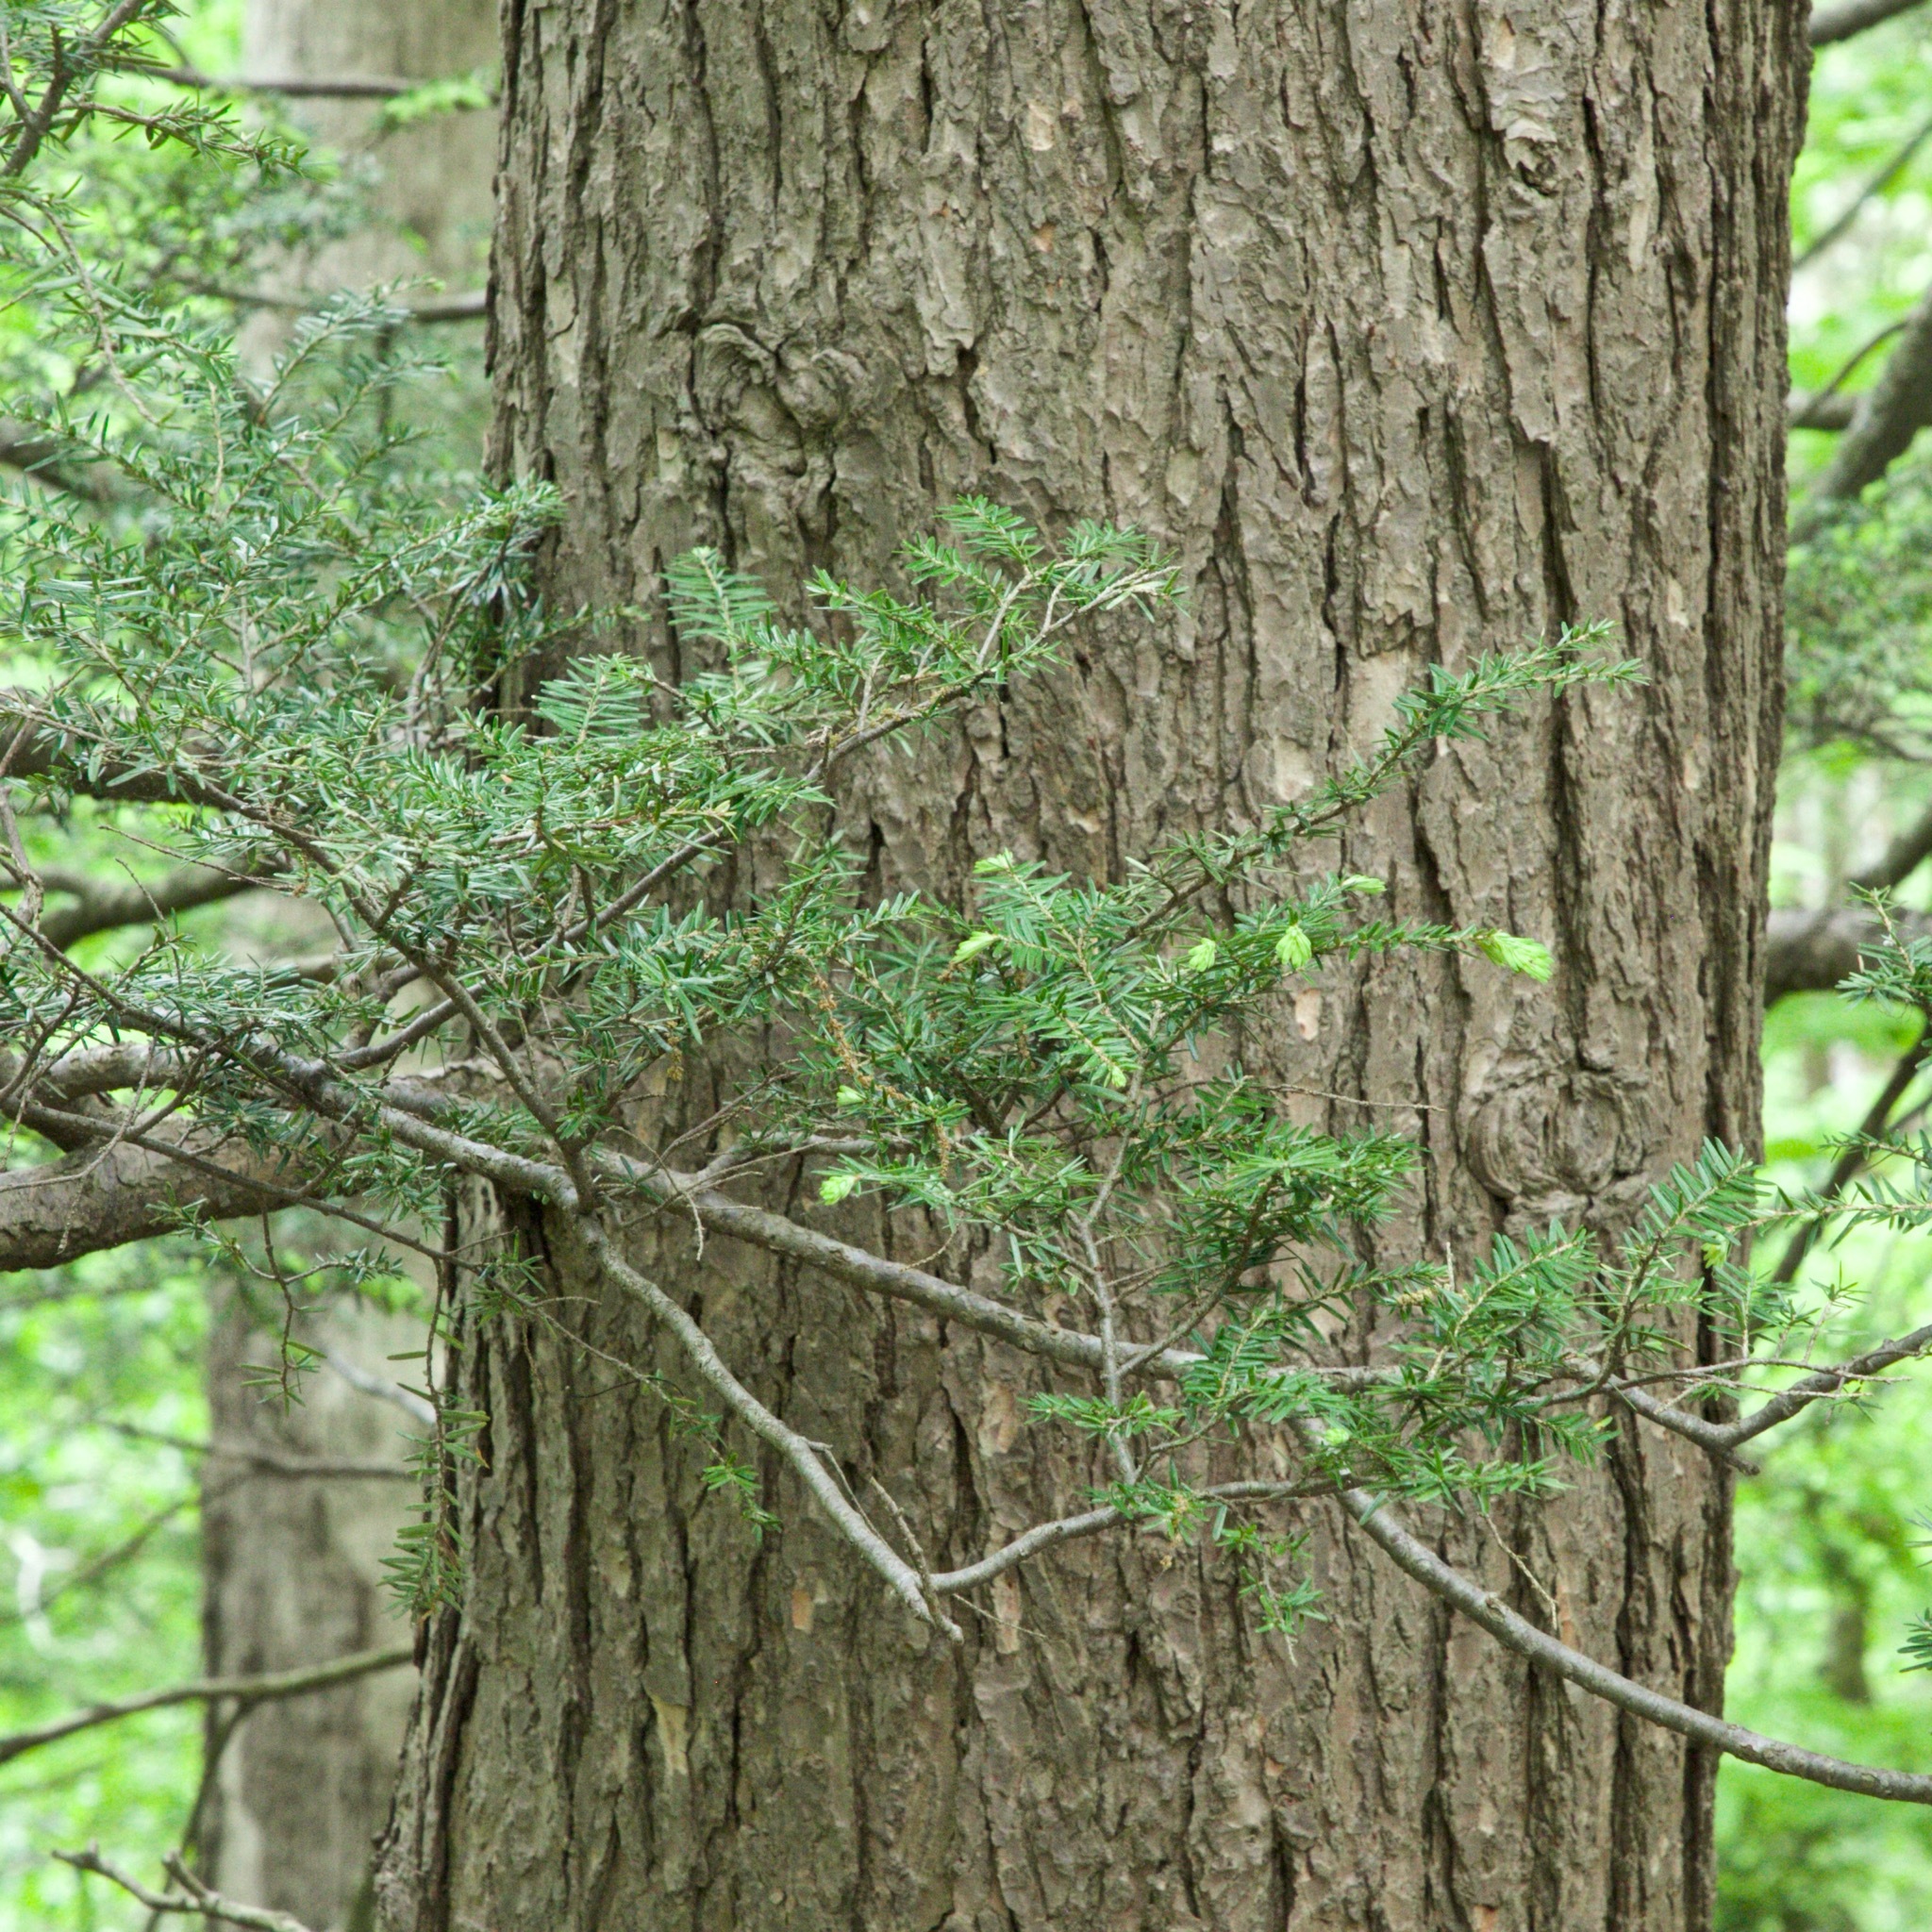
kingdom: Plantae
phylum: Tracheophyta
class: Pinopsida
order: Pinales
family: Pinaceae
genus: Tsuga
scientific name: Tsuga canadensis
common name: Eastern hemlock
